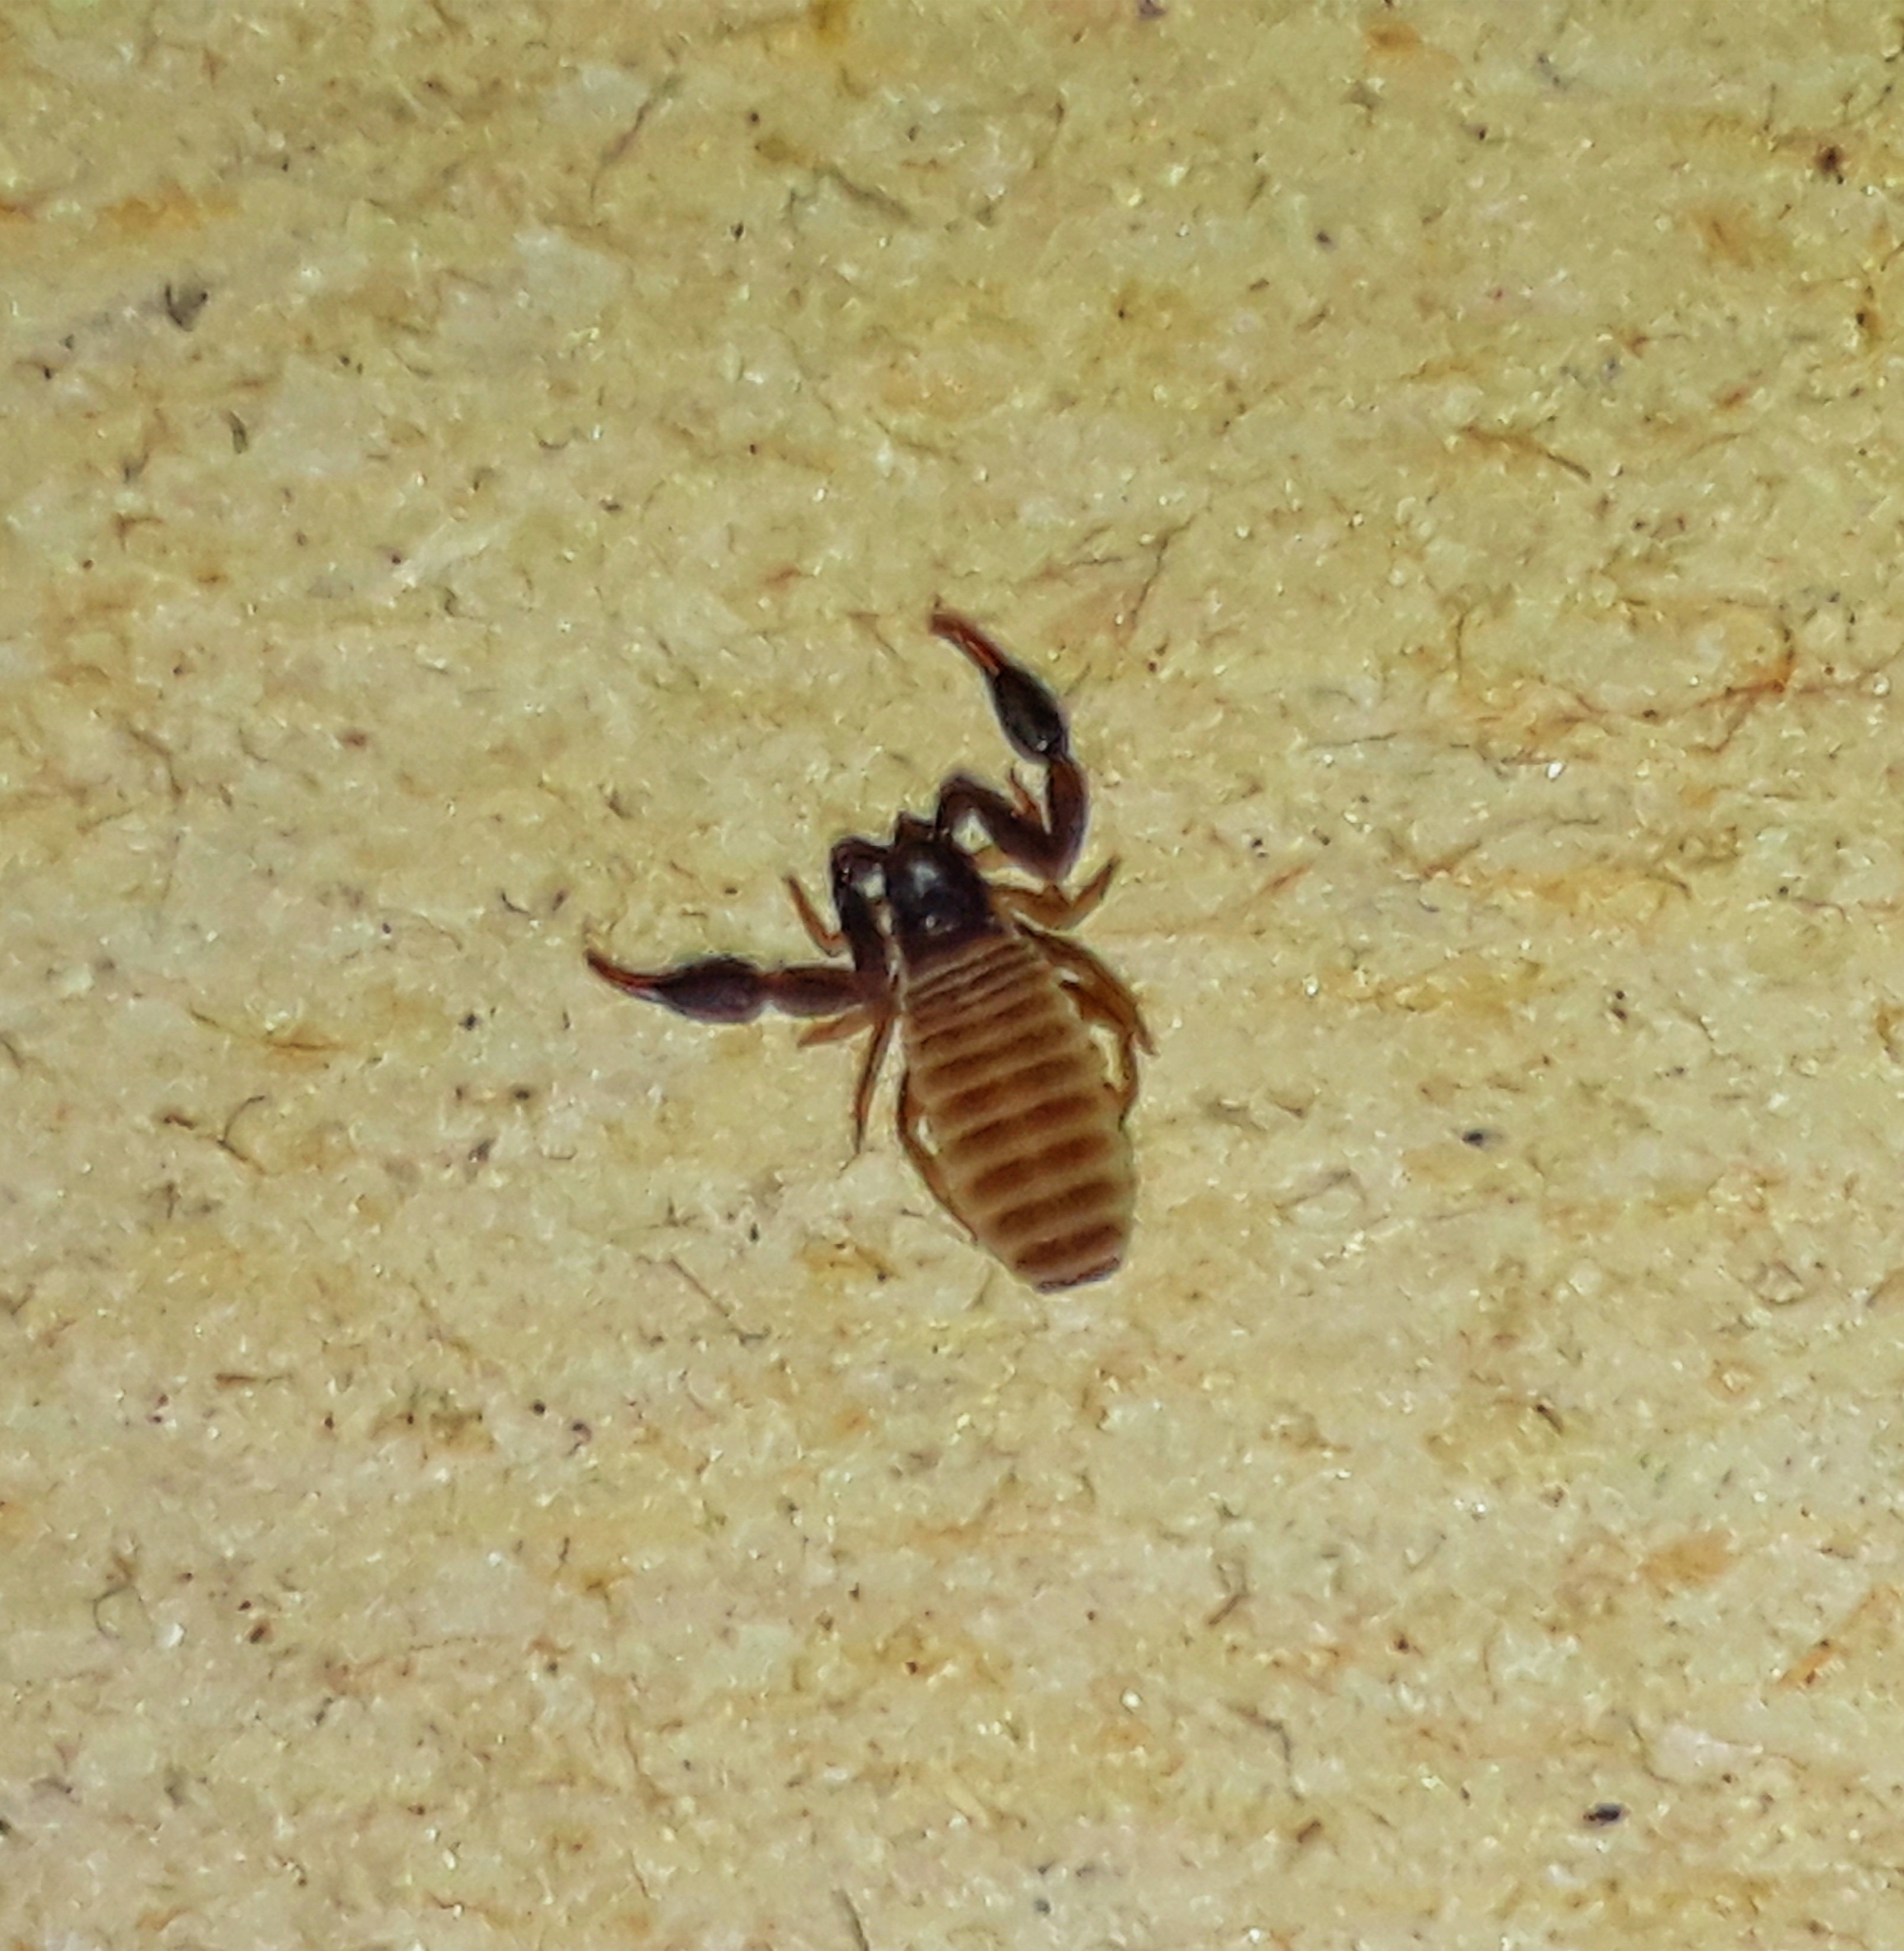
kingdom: Animalia
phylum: Arthropoda
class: Arachnida
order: Pseudoscorpiones
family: Cheliferidae
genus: Chelifer
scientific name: Chelifer cancroides
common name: House false-scorpion
